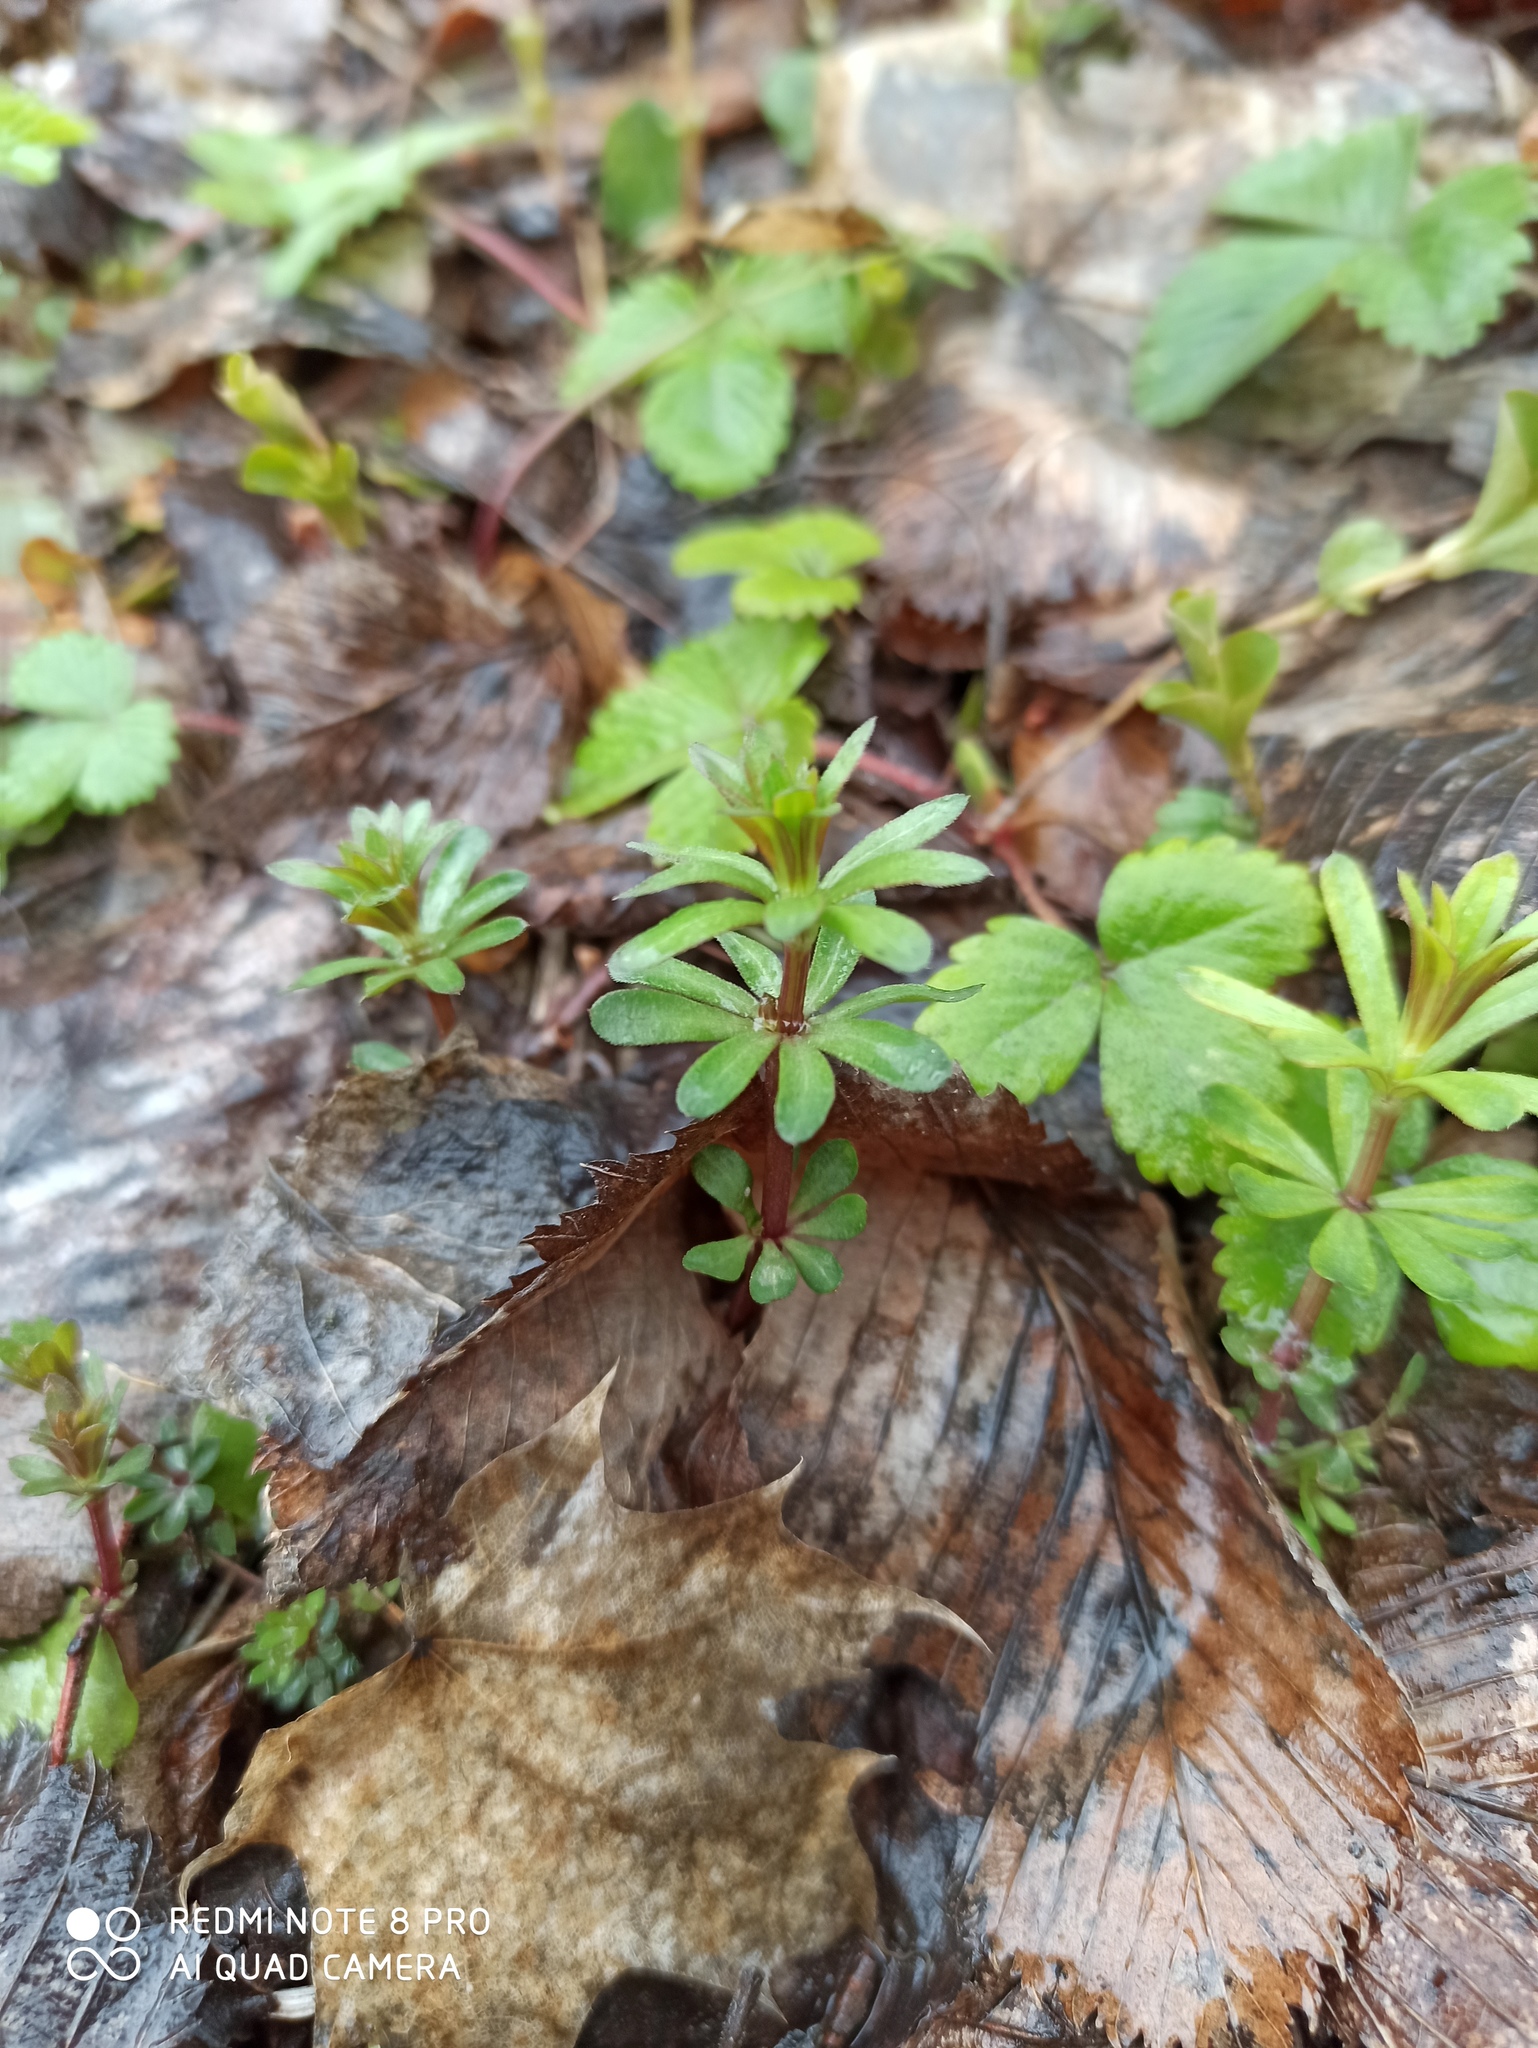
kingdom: Plantae
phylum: Tracheophyta
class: Magnoliopsida
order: Gentianales
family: Rubiaceae
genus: Galium
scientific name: Galium mollugo
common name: Hedge bedstraw
